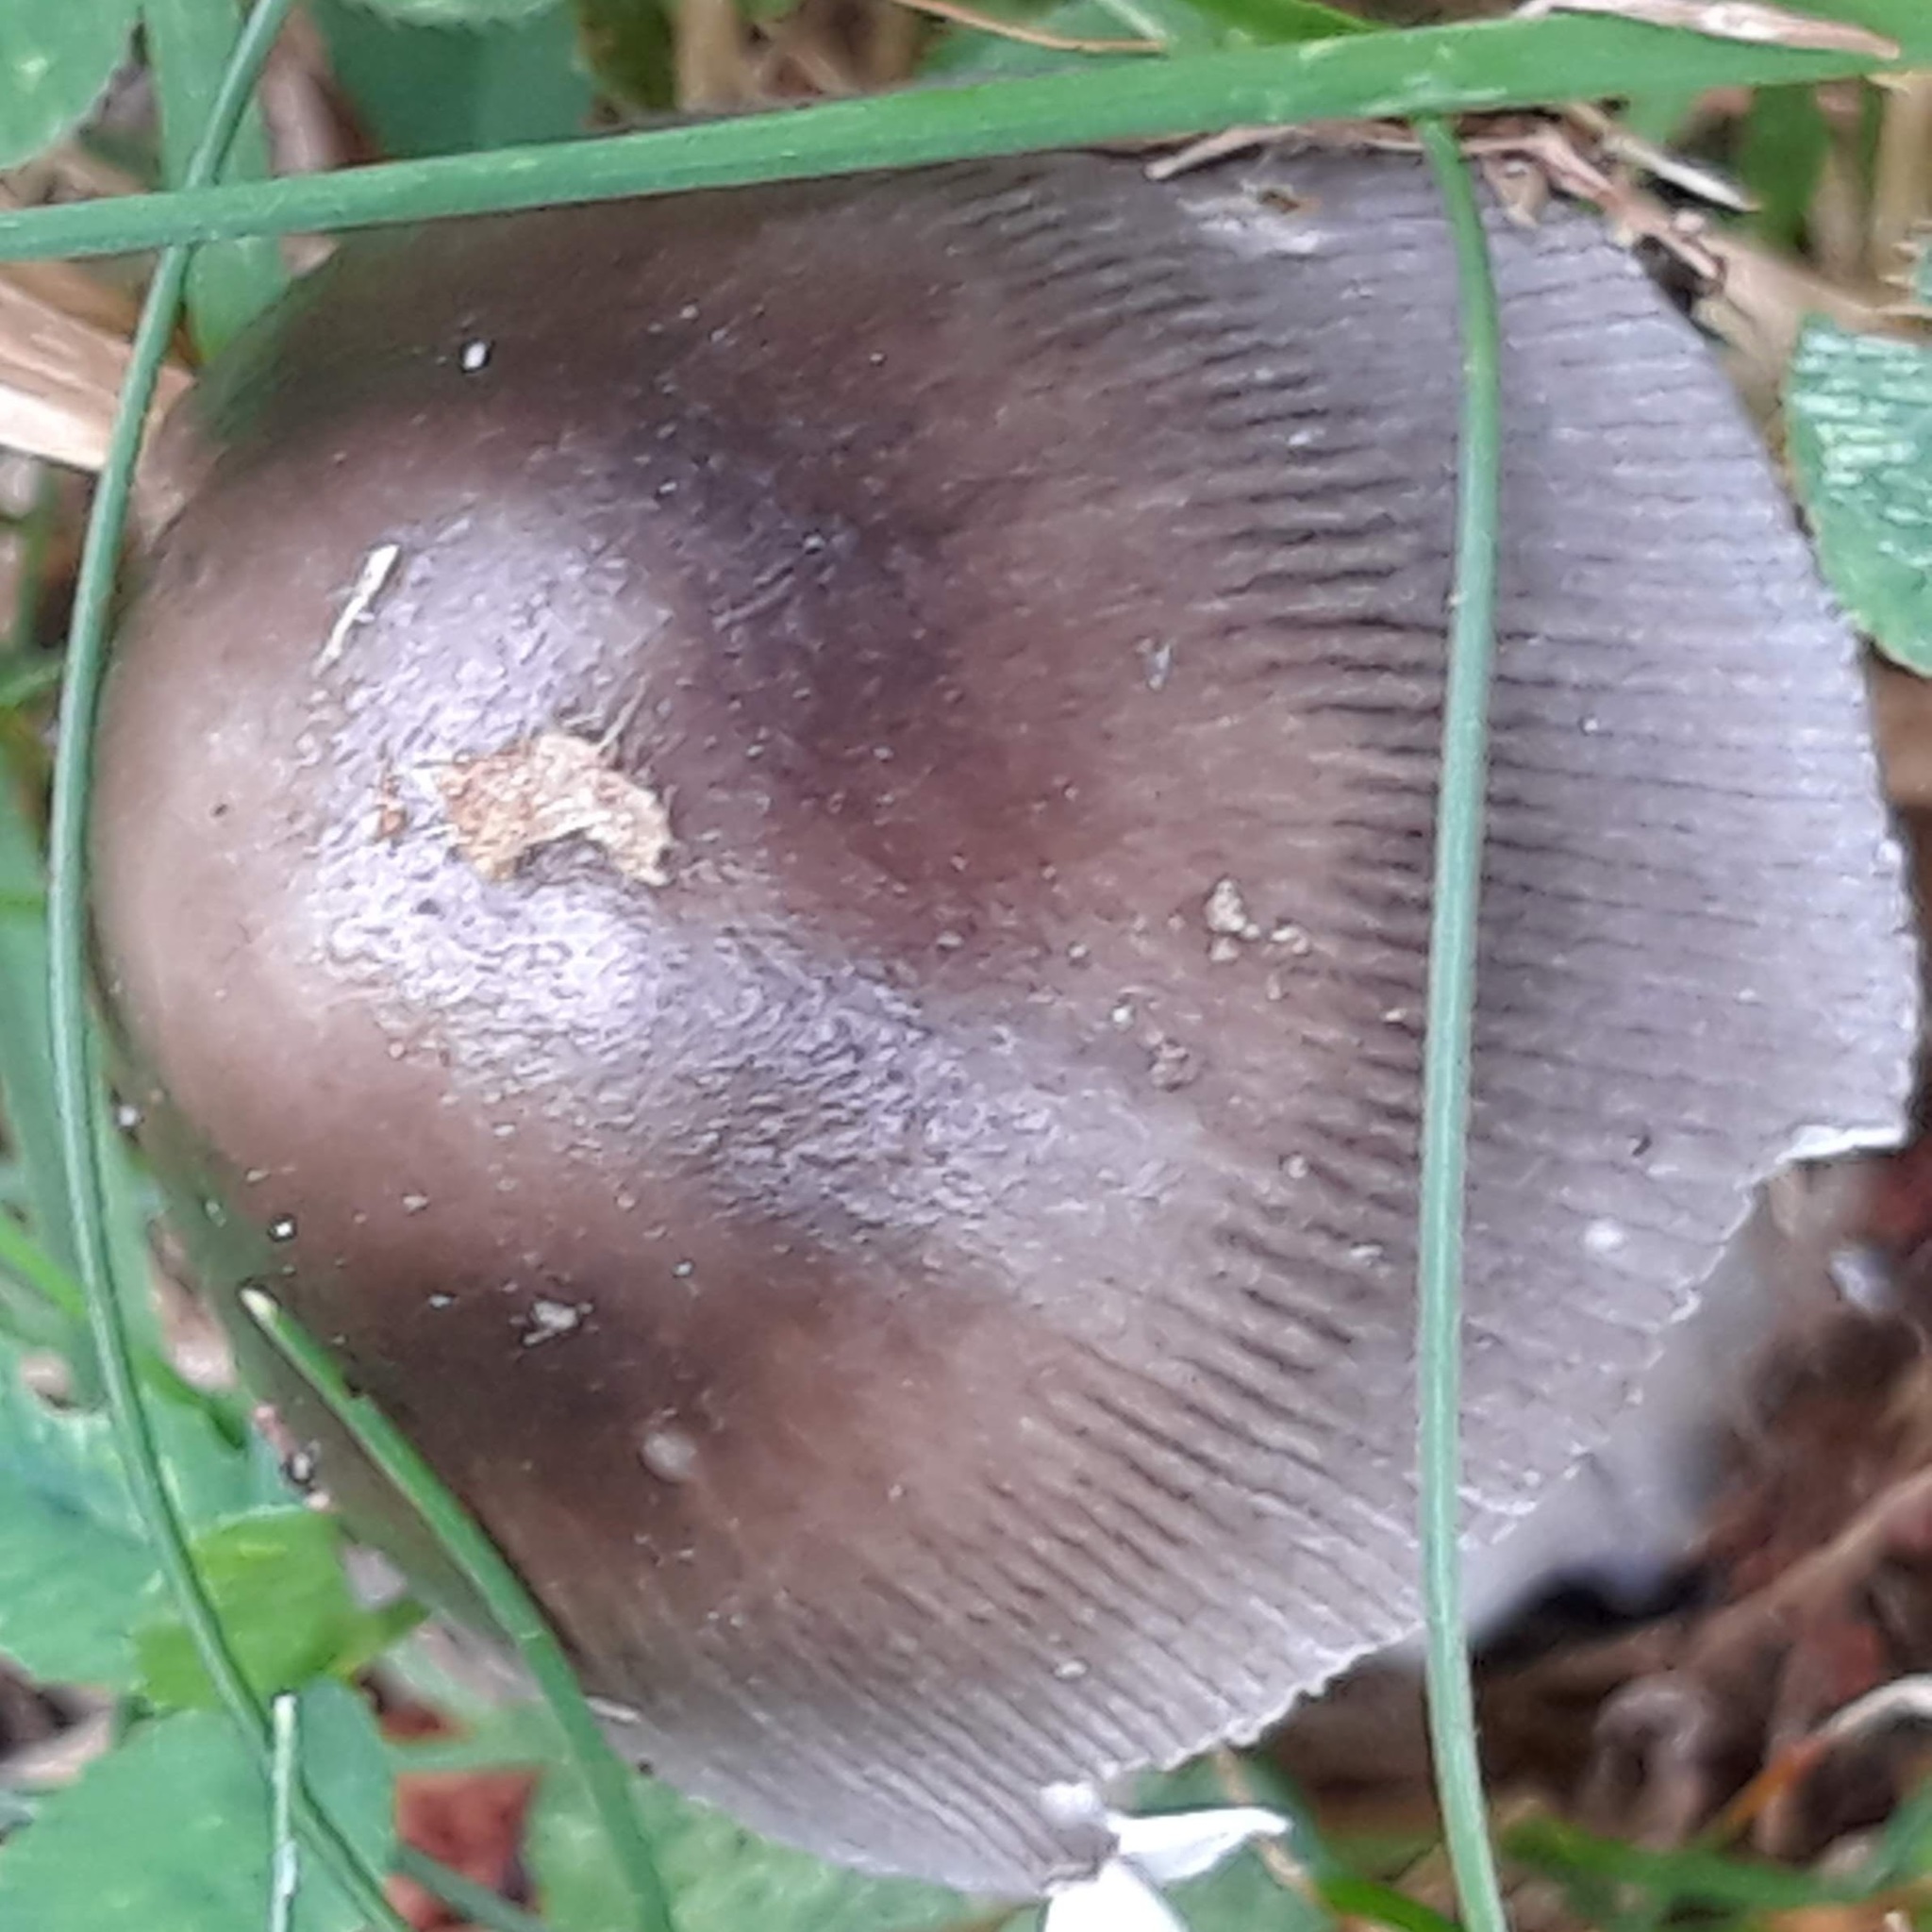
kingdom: Fungi
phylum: Basidiomycota
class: Agaricomycetes
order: Agaricales
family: Amanitaceae
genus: Amanita
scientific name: Amanita
